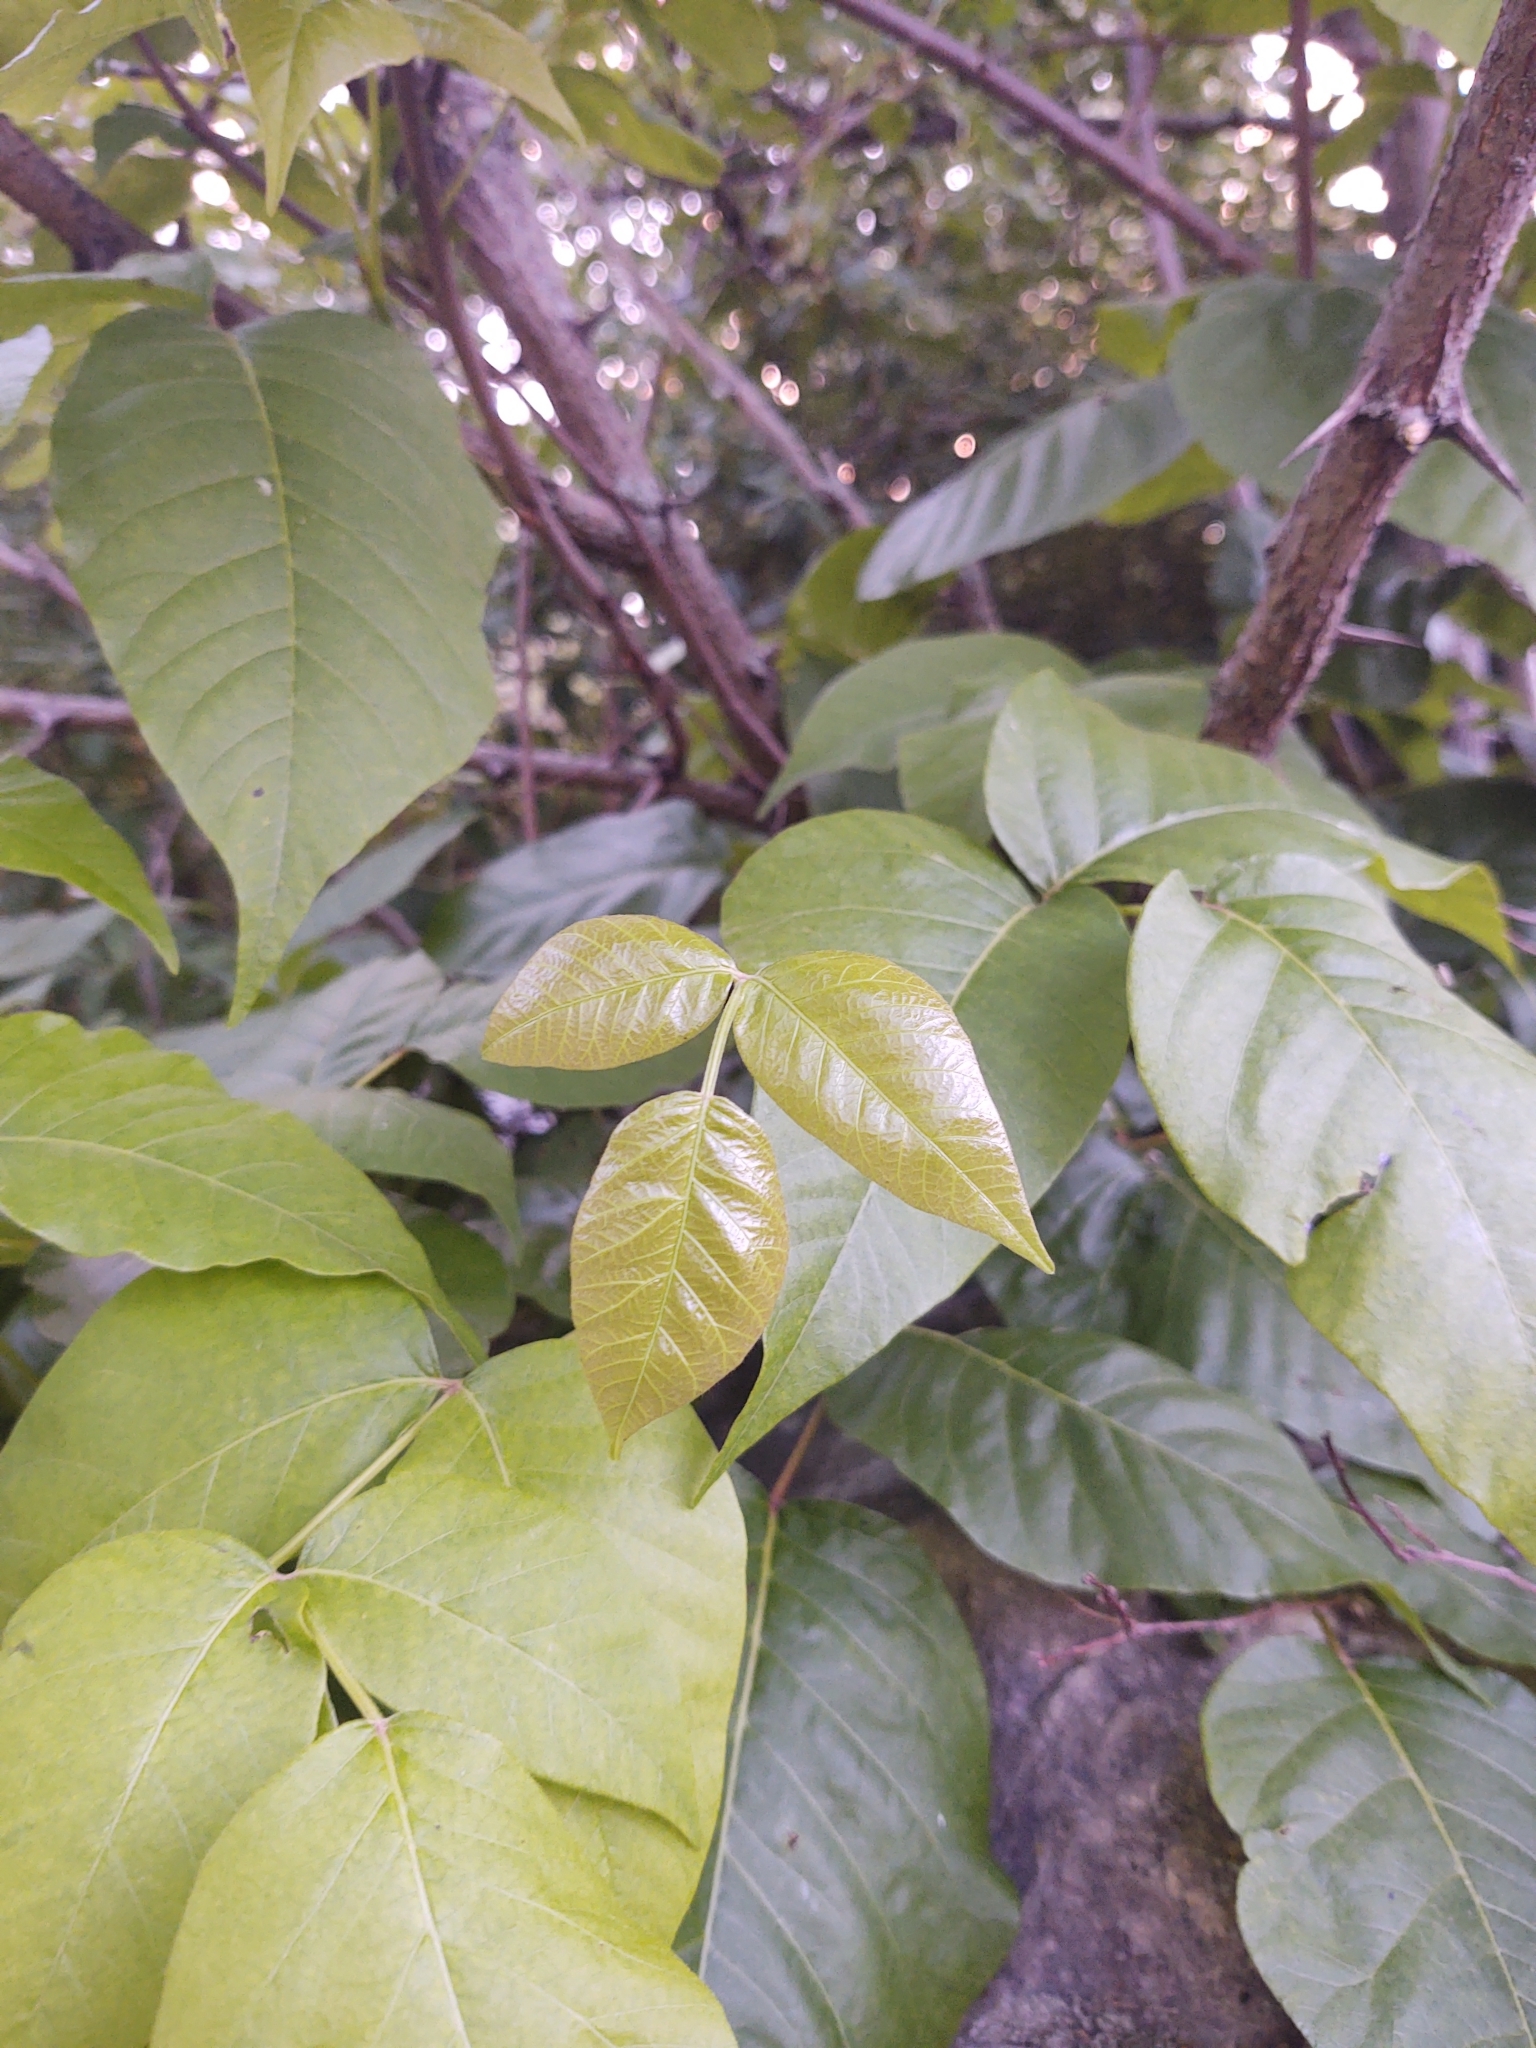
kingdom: Plantae
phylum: Tracheophyta
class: Magnoliopsida
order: Sapindales
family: Anacardiaceae
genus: Toxicodendron
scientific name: Toxicodendron radicans
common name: Poison ivy
